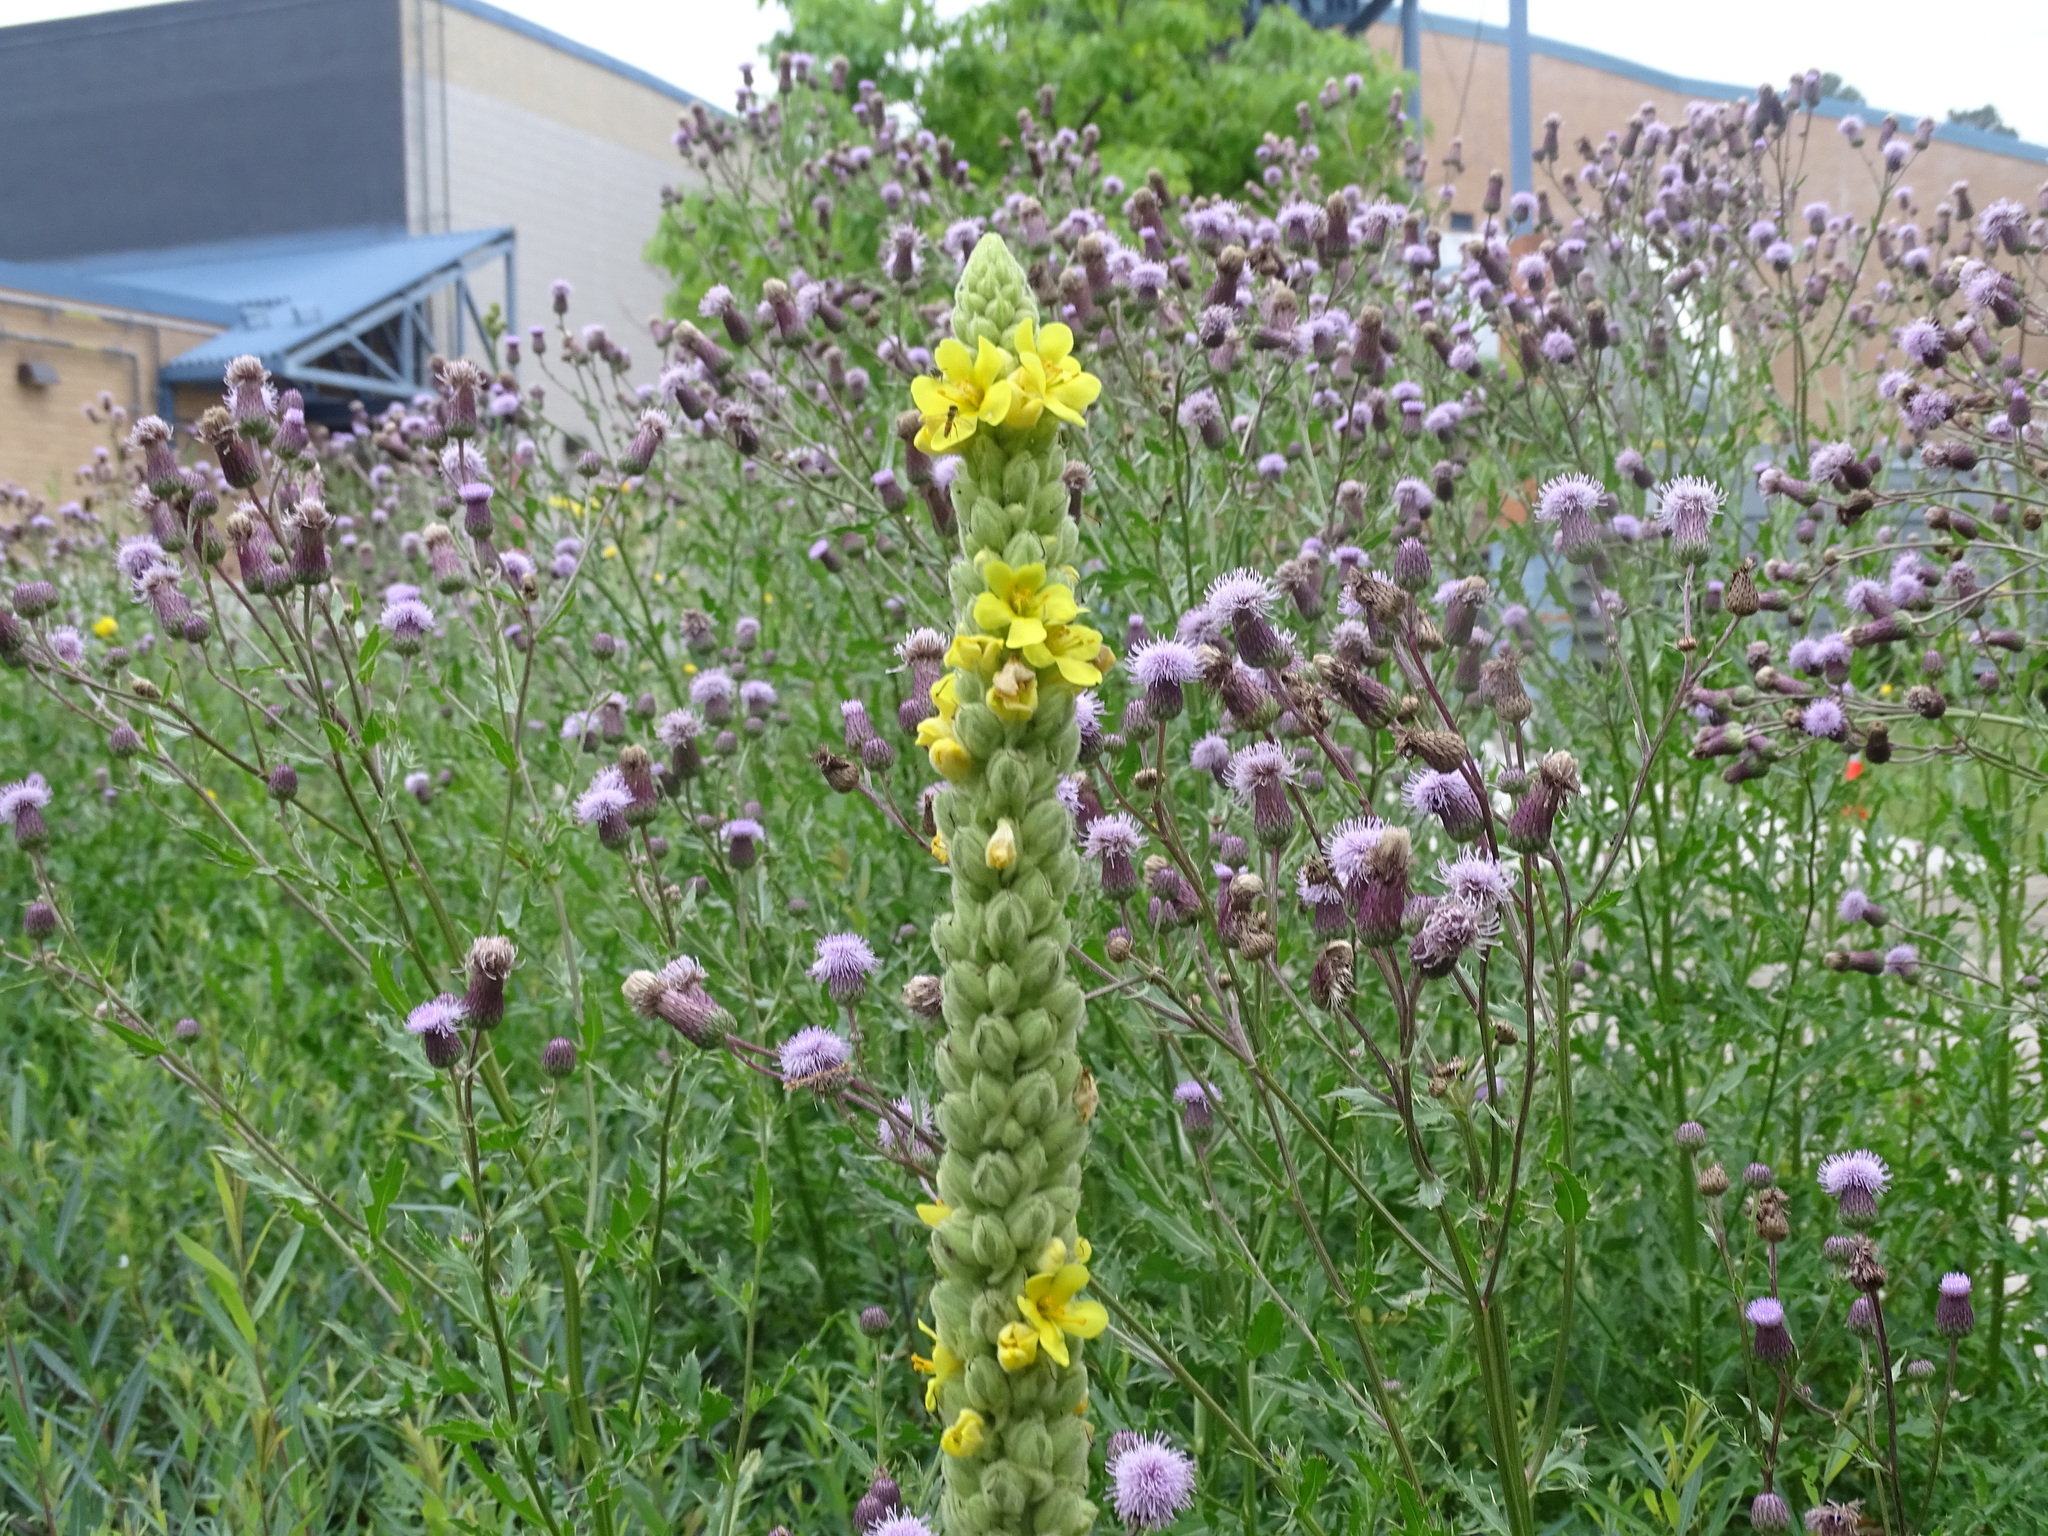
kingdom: Plantae
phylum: Tracheophyta
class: Magnoliopsida
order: Lamiales
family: Scrophulariaceae
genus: Verbascum
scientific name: Verbascum thapsus
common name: Common mullein
